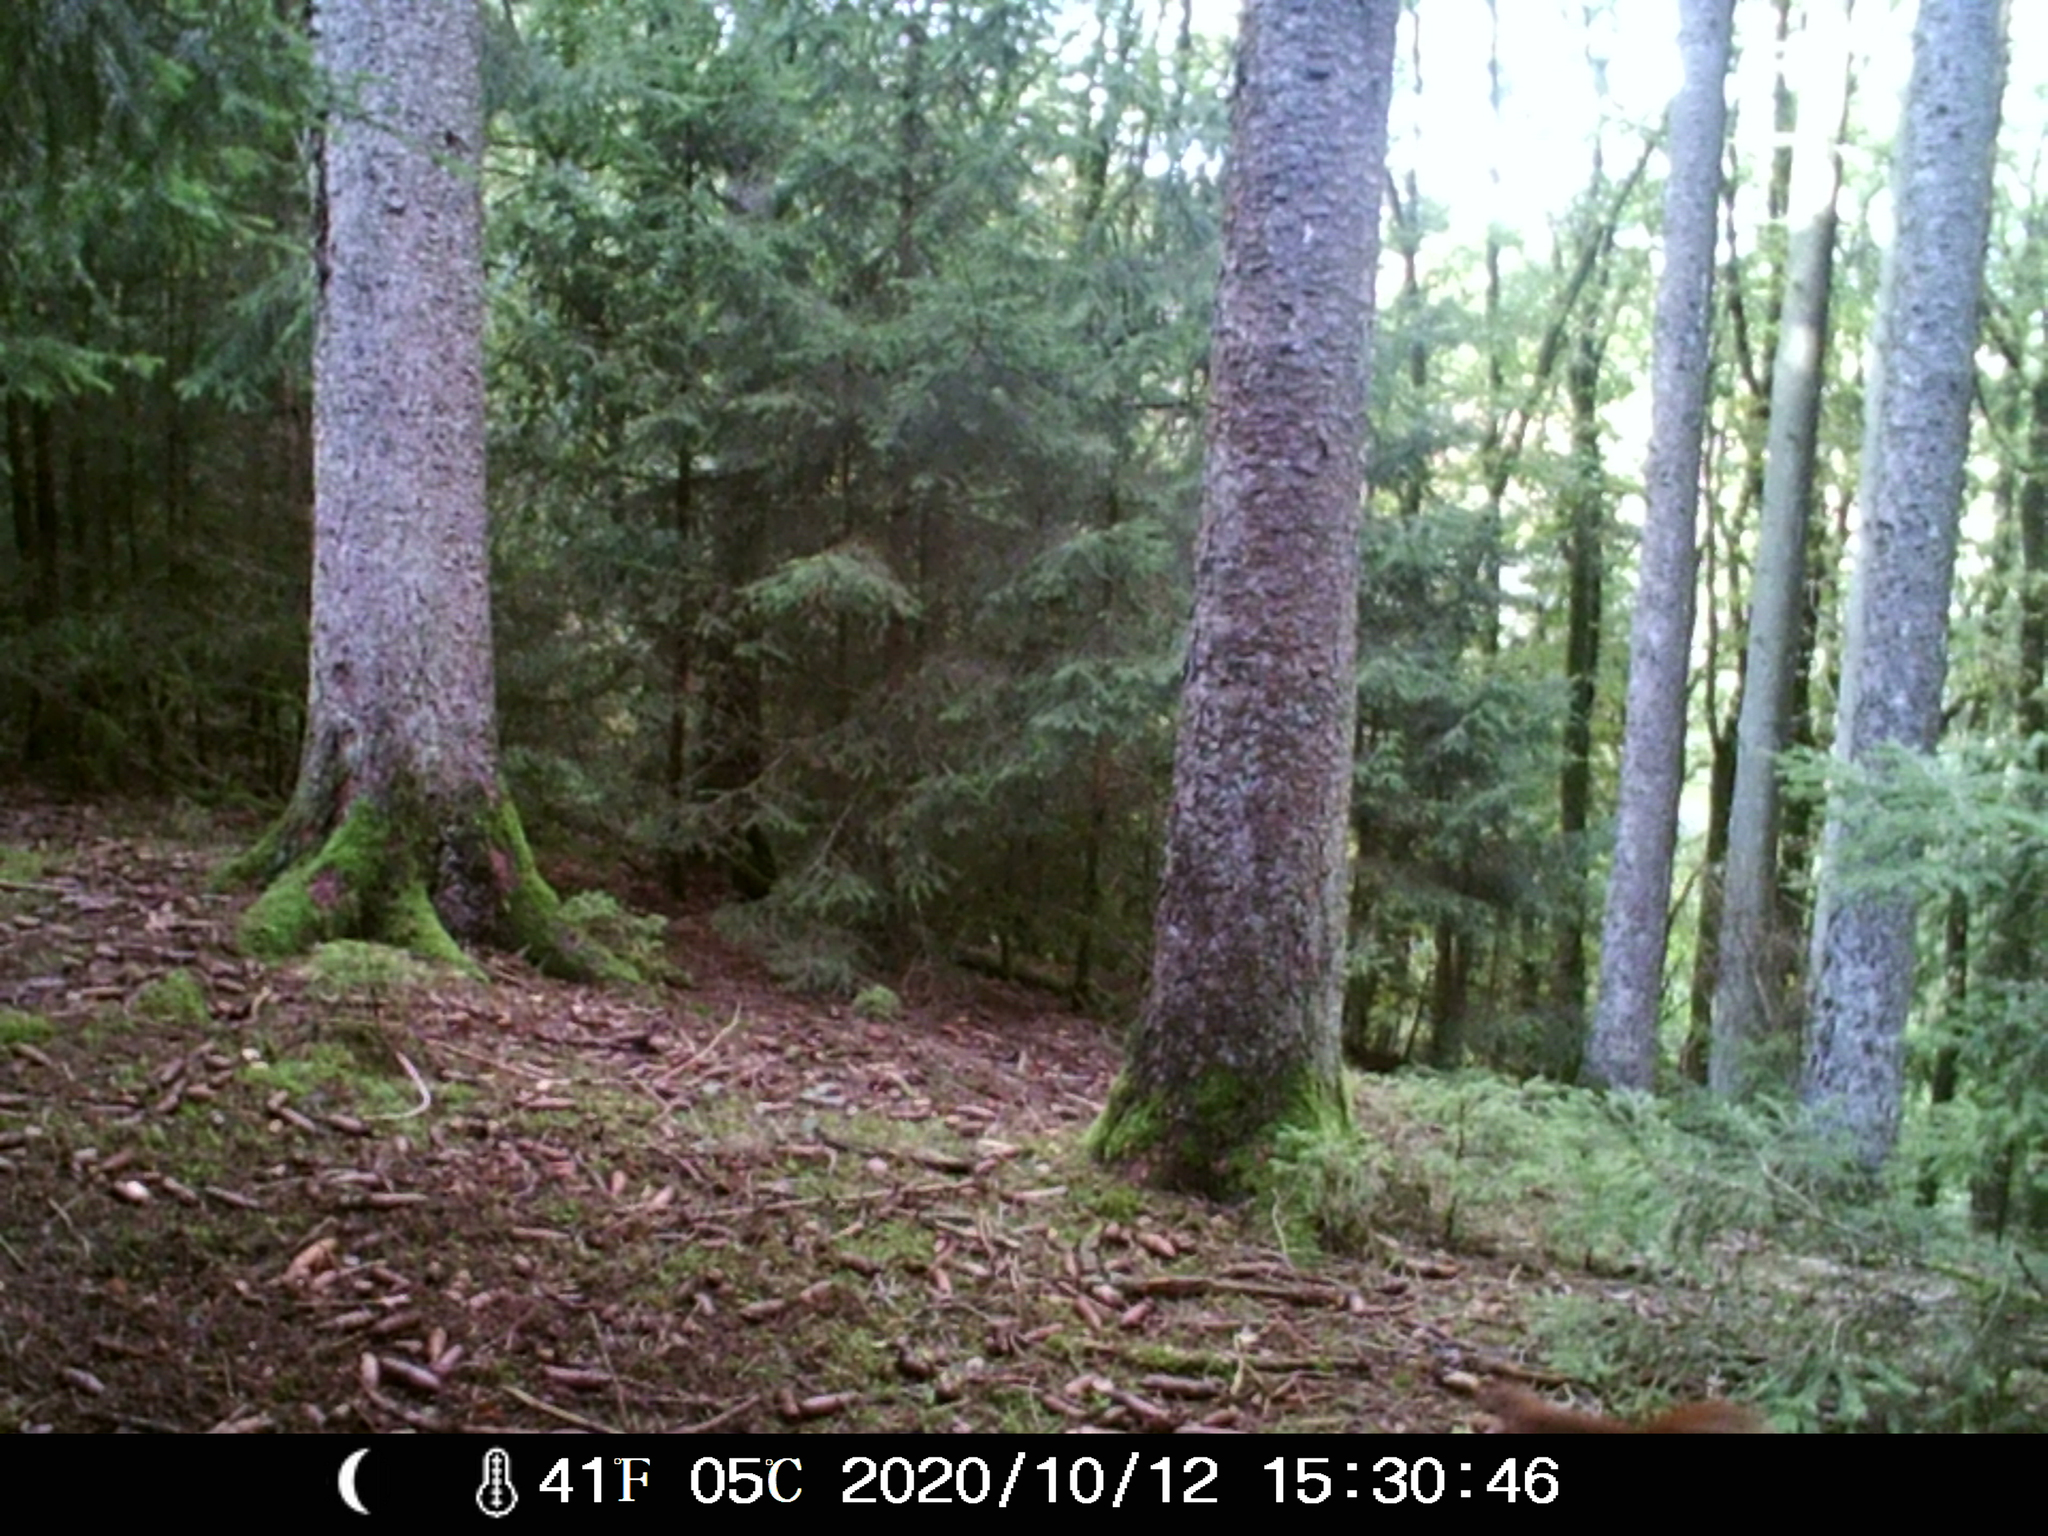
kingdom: Animalia
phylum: Chordata
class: Mammalia
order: Rodentia
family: Sciuridae
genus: Sciurus
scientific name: Sciurus vulgaris
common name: Eurasian red squirrel
